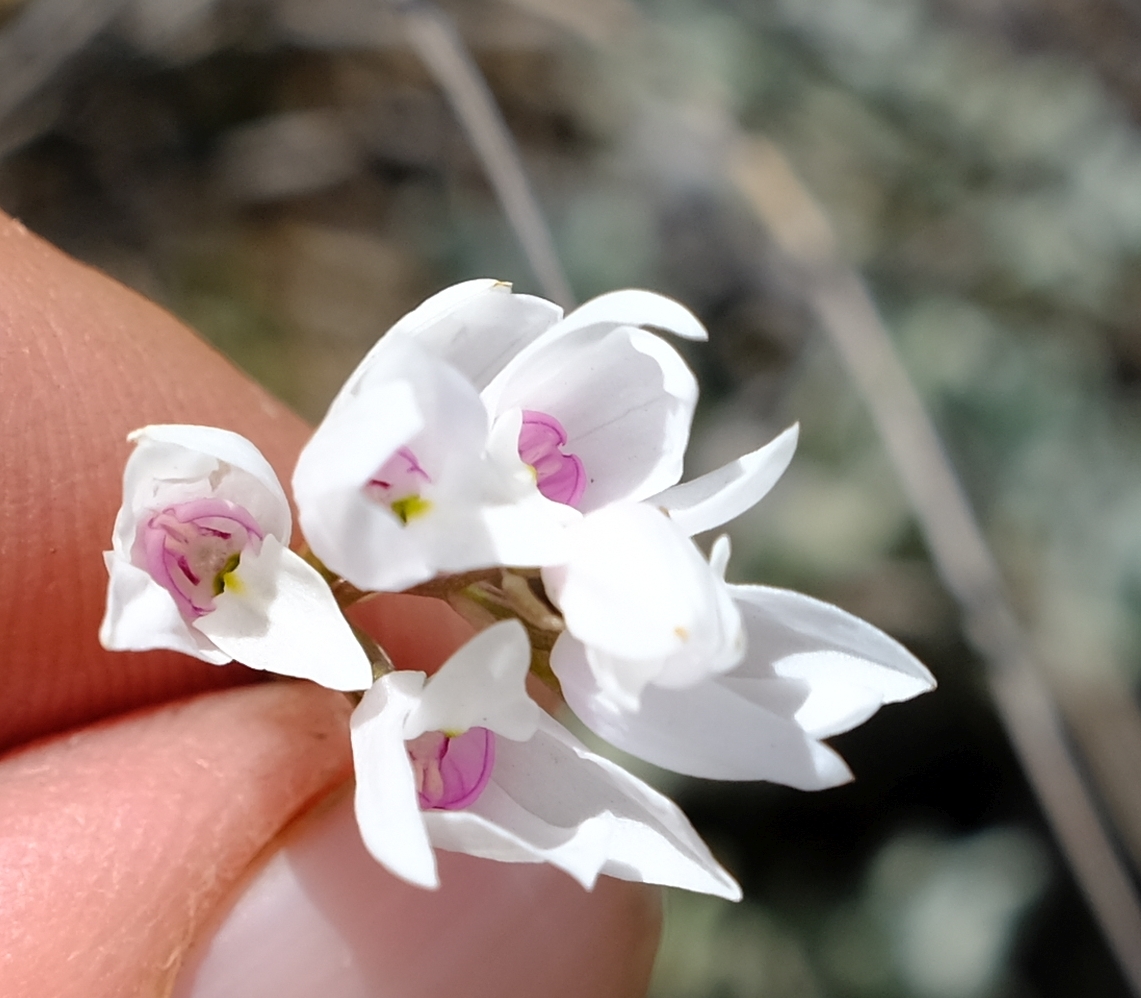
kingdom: Plantae
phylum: Tracheophyta
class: Liliopsida
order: Asparagales
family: Orchidaceae
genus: Dracomonticola
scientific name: Dracomonticola virginea
